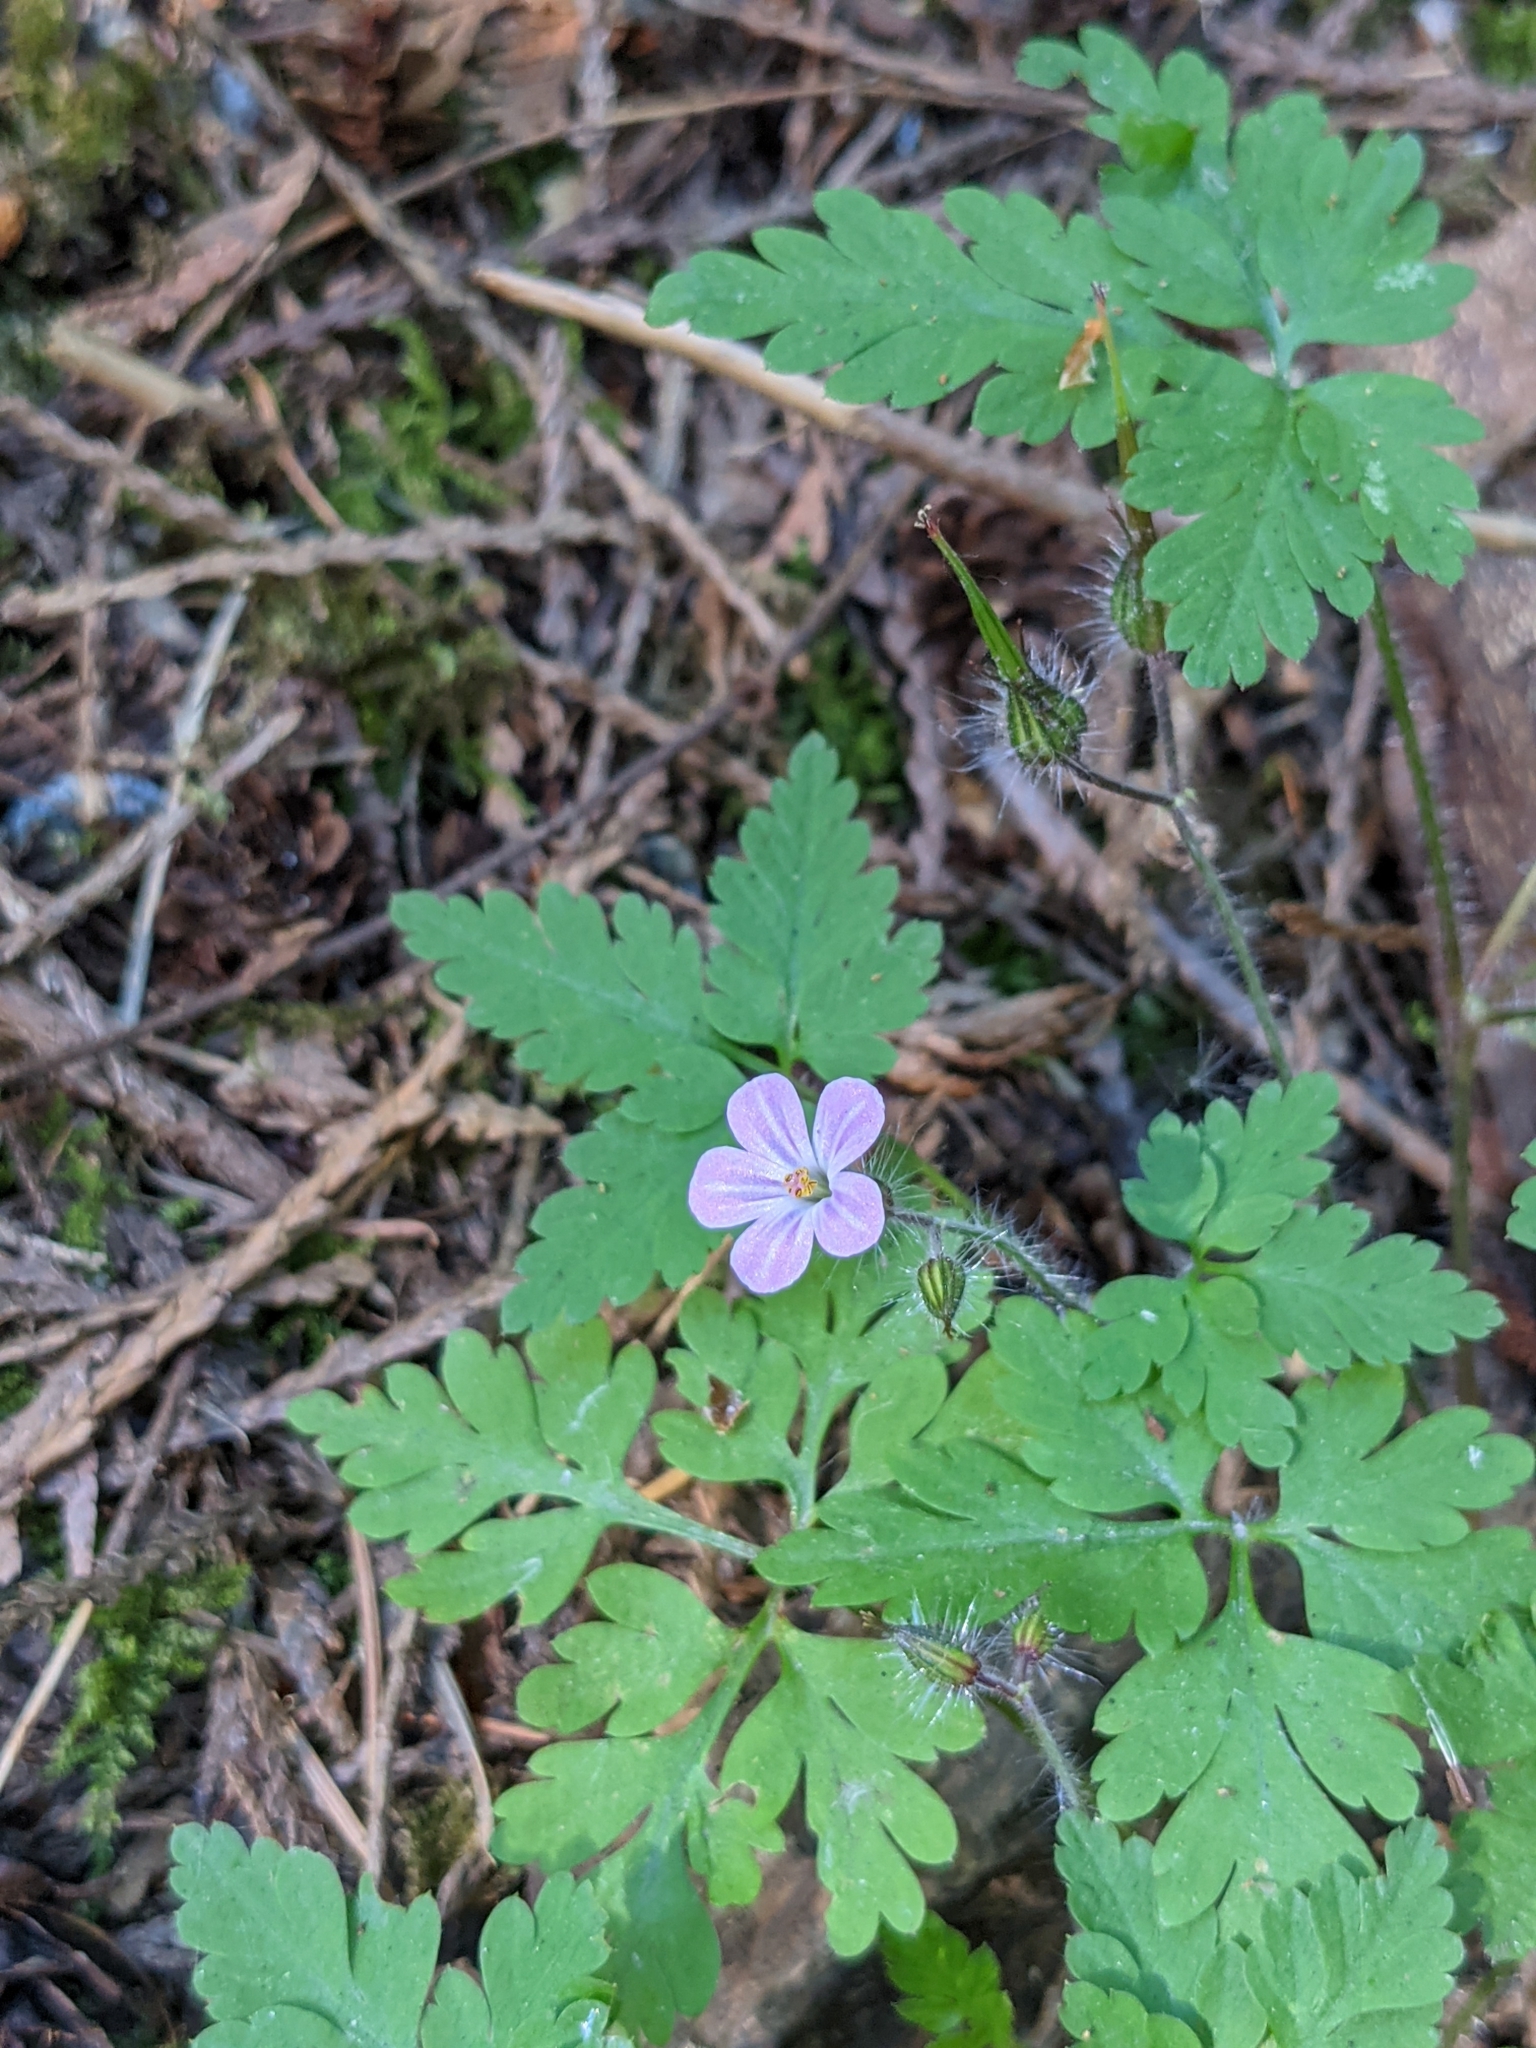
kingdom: Plantae
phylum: Tracheophyta
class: Magnoliopsida
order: Geraniales
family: Geraniaceae
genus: Geranium
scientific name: Geranium robertianum
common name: Herb-robert
